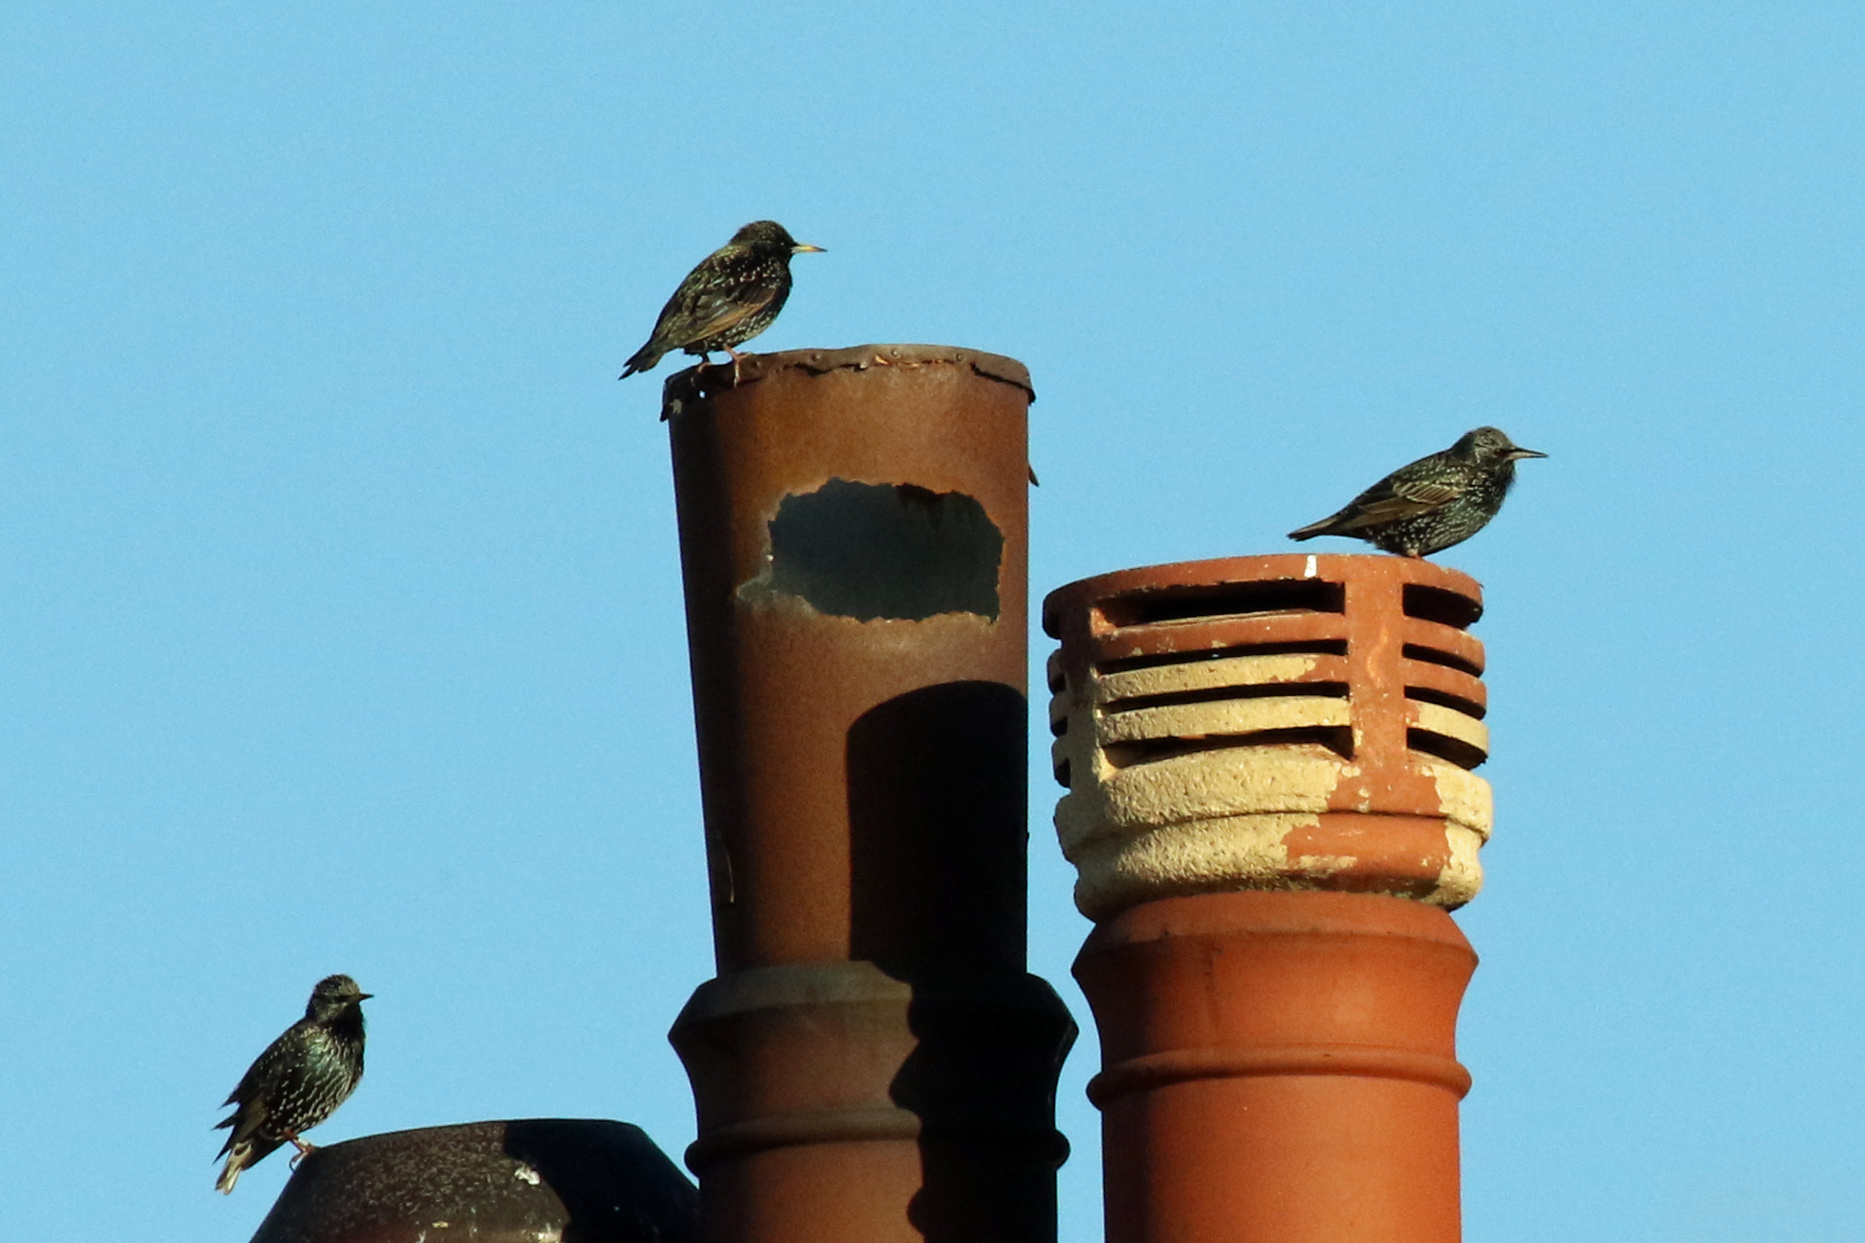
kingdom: Animalia
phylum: Chordata
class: Aves
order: Passeriformes
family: Sturnidae
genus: Sturnus
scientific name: Sturnus vulgaris
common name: Common starling
